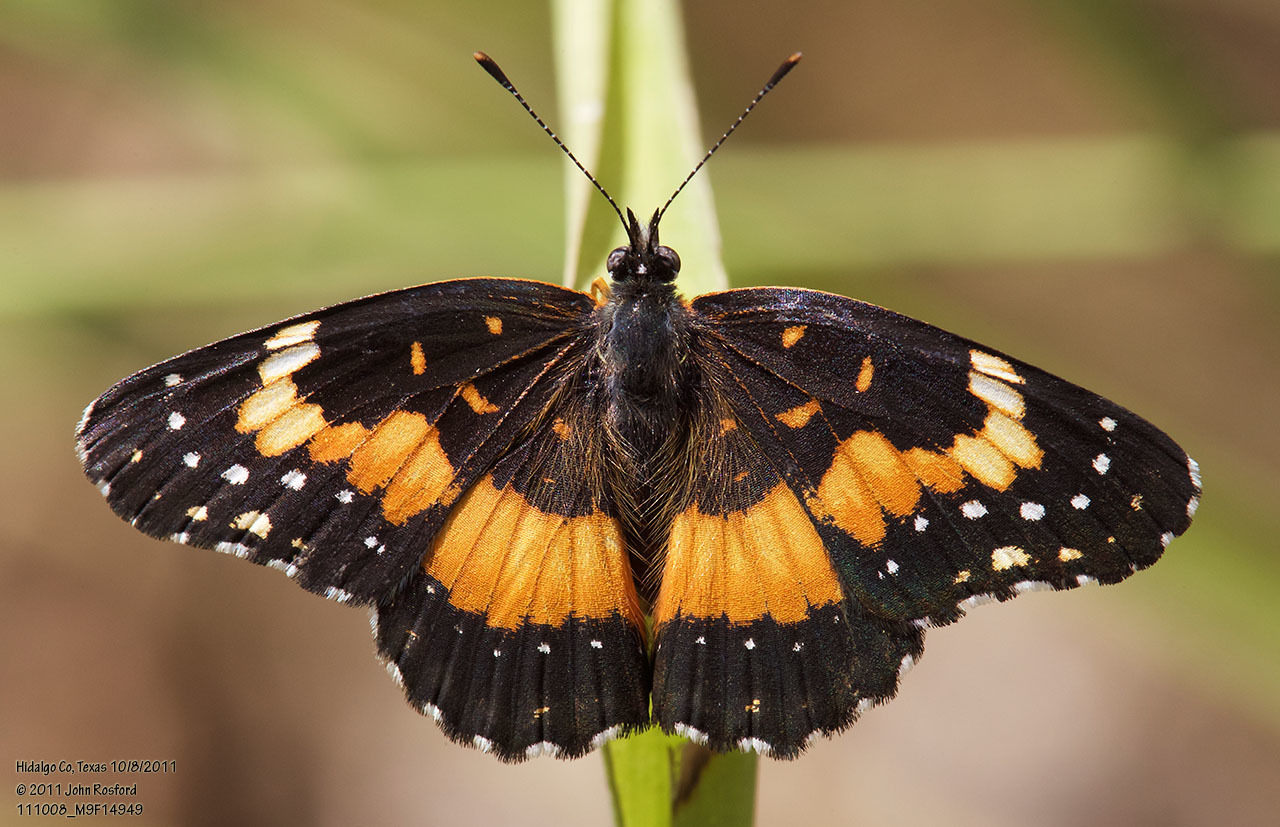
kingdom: Animalia
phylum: Arthropoda
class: Insecta
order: Lepidoptera
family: Nymphalidae
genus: Chlosyne
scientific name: Chlosyne lacinia
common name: Bordered patch
